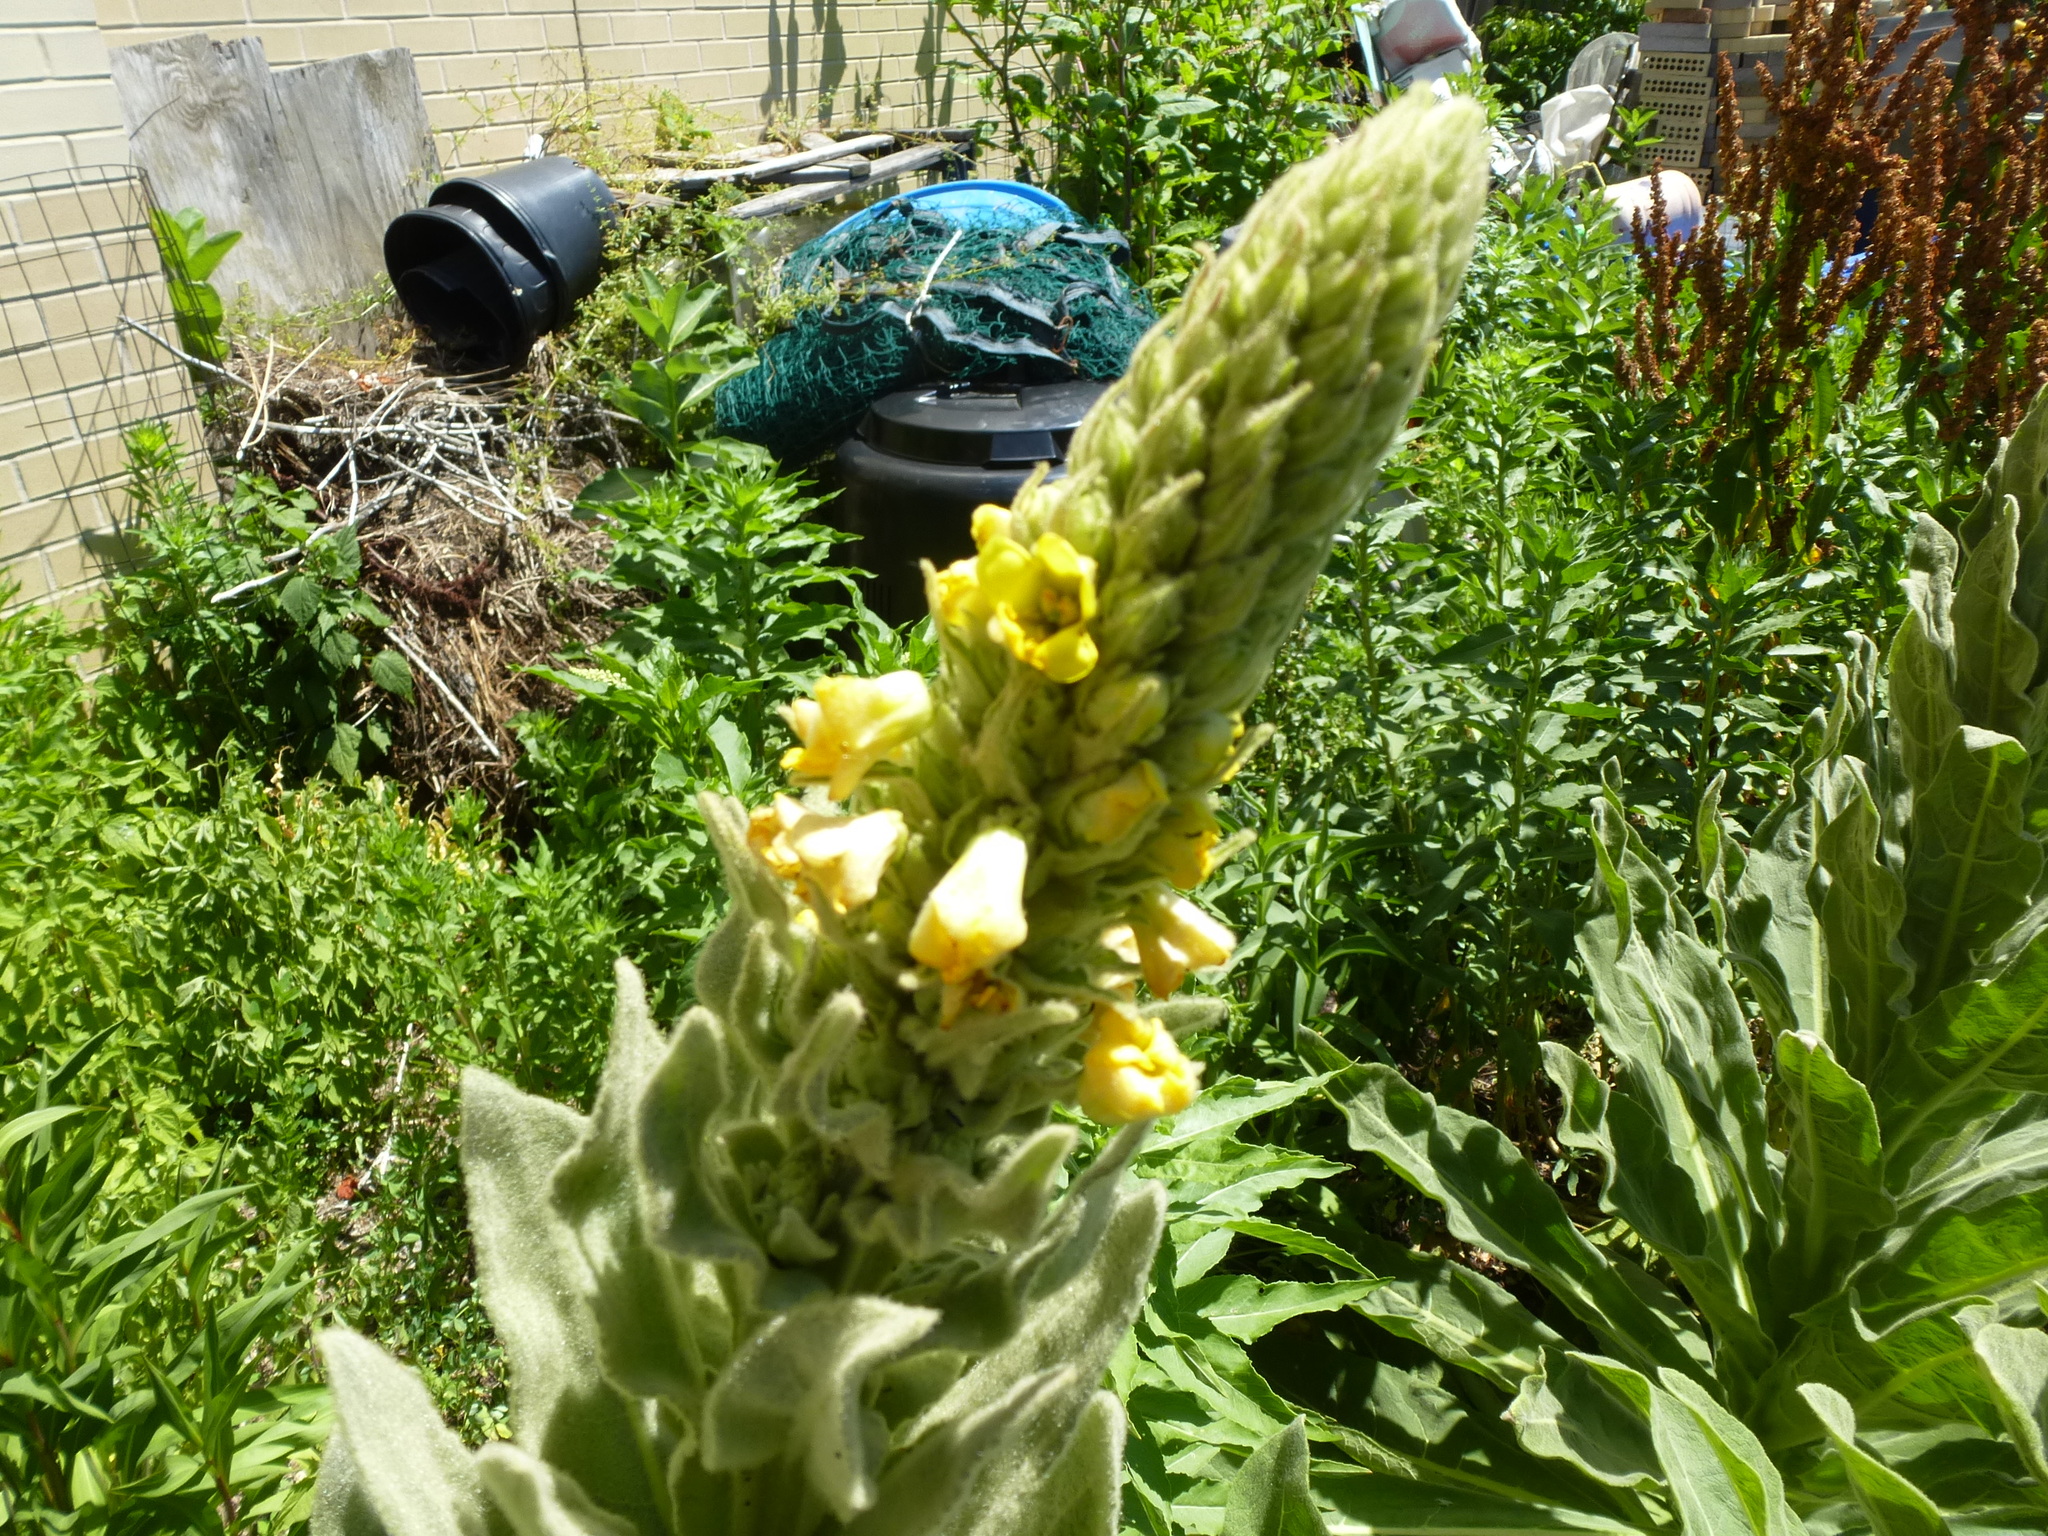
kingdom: Plantae
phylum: Tracheophyta
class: Magnoliopsida
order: Lamiales
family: Scrophulariaceae
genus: Verbascum
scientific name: Verbascum thapsus
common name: Common mullein
